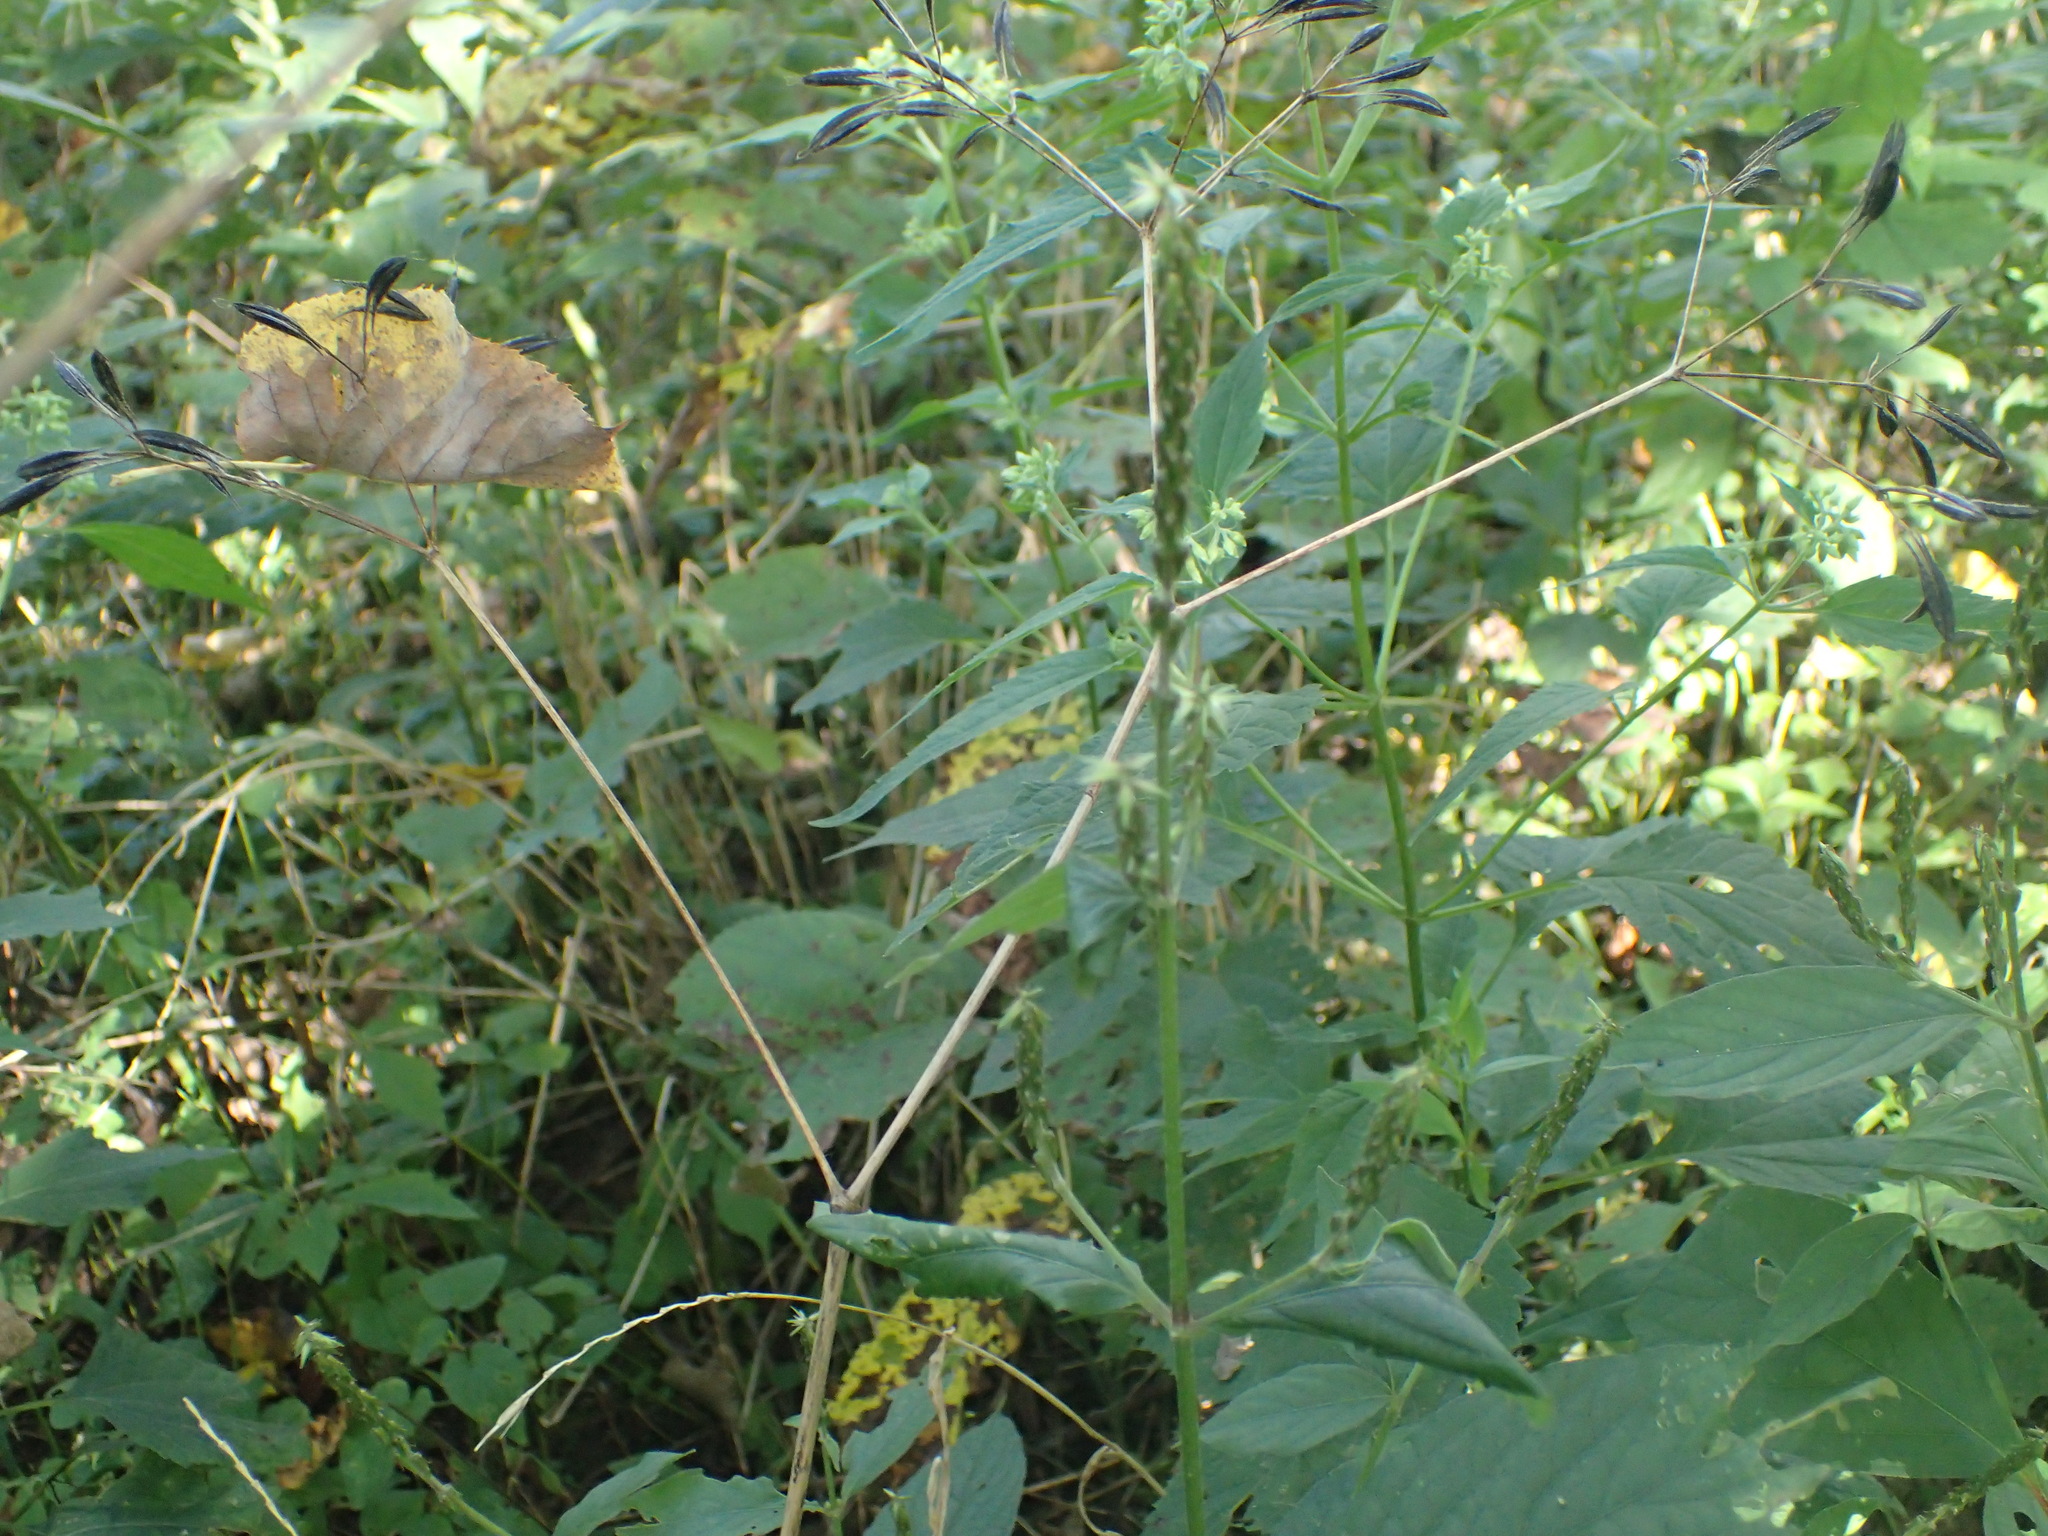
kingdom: Plantae
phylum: Tracheophyta
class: Magnoliopsida
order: Caryophyllales
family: Amaranthaceae
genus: Achyranthes
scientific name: Achyranthes bidentata
